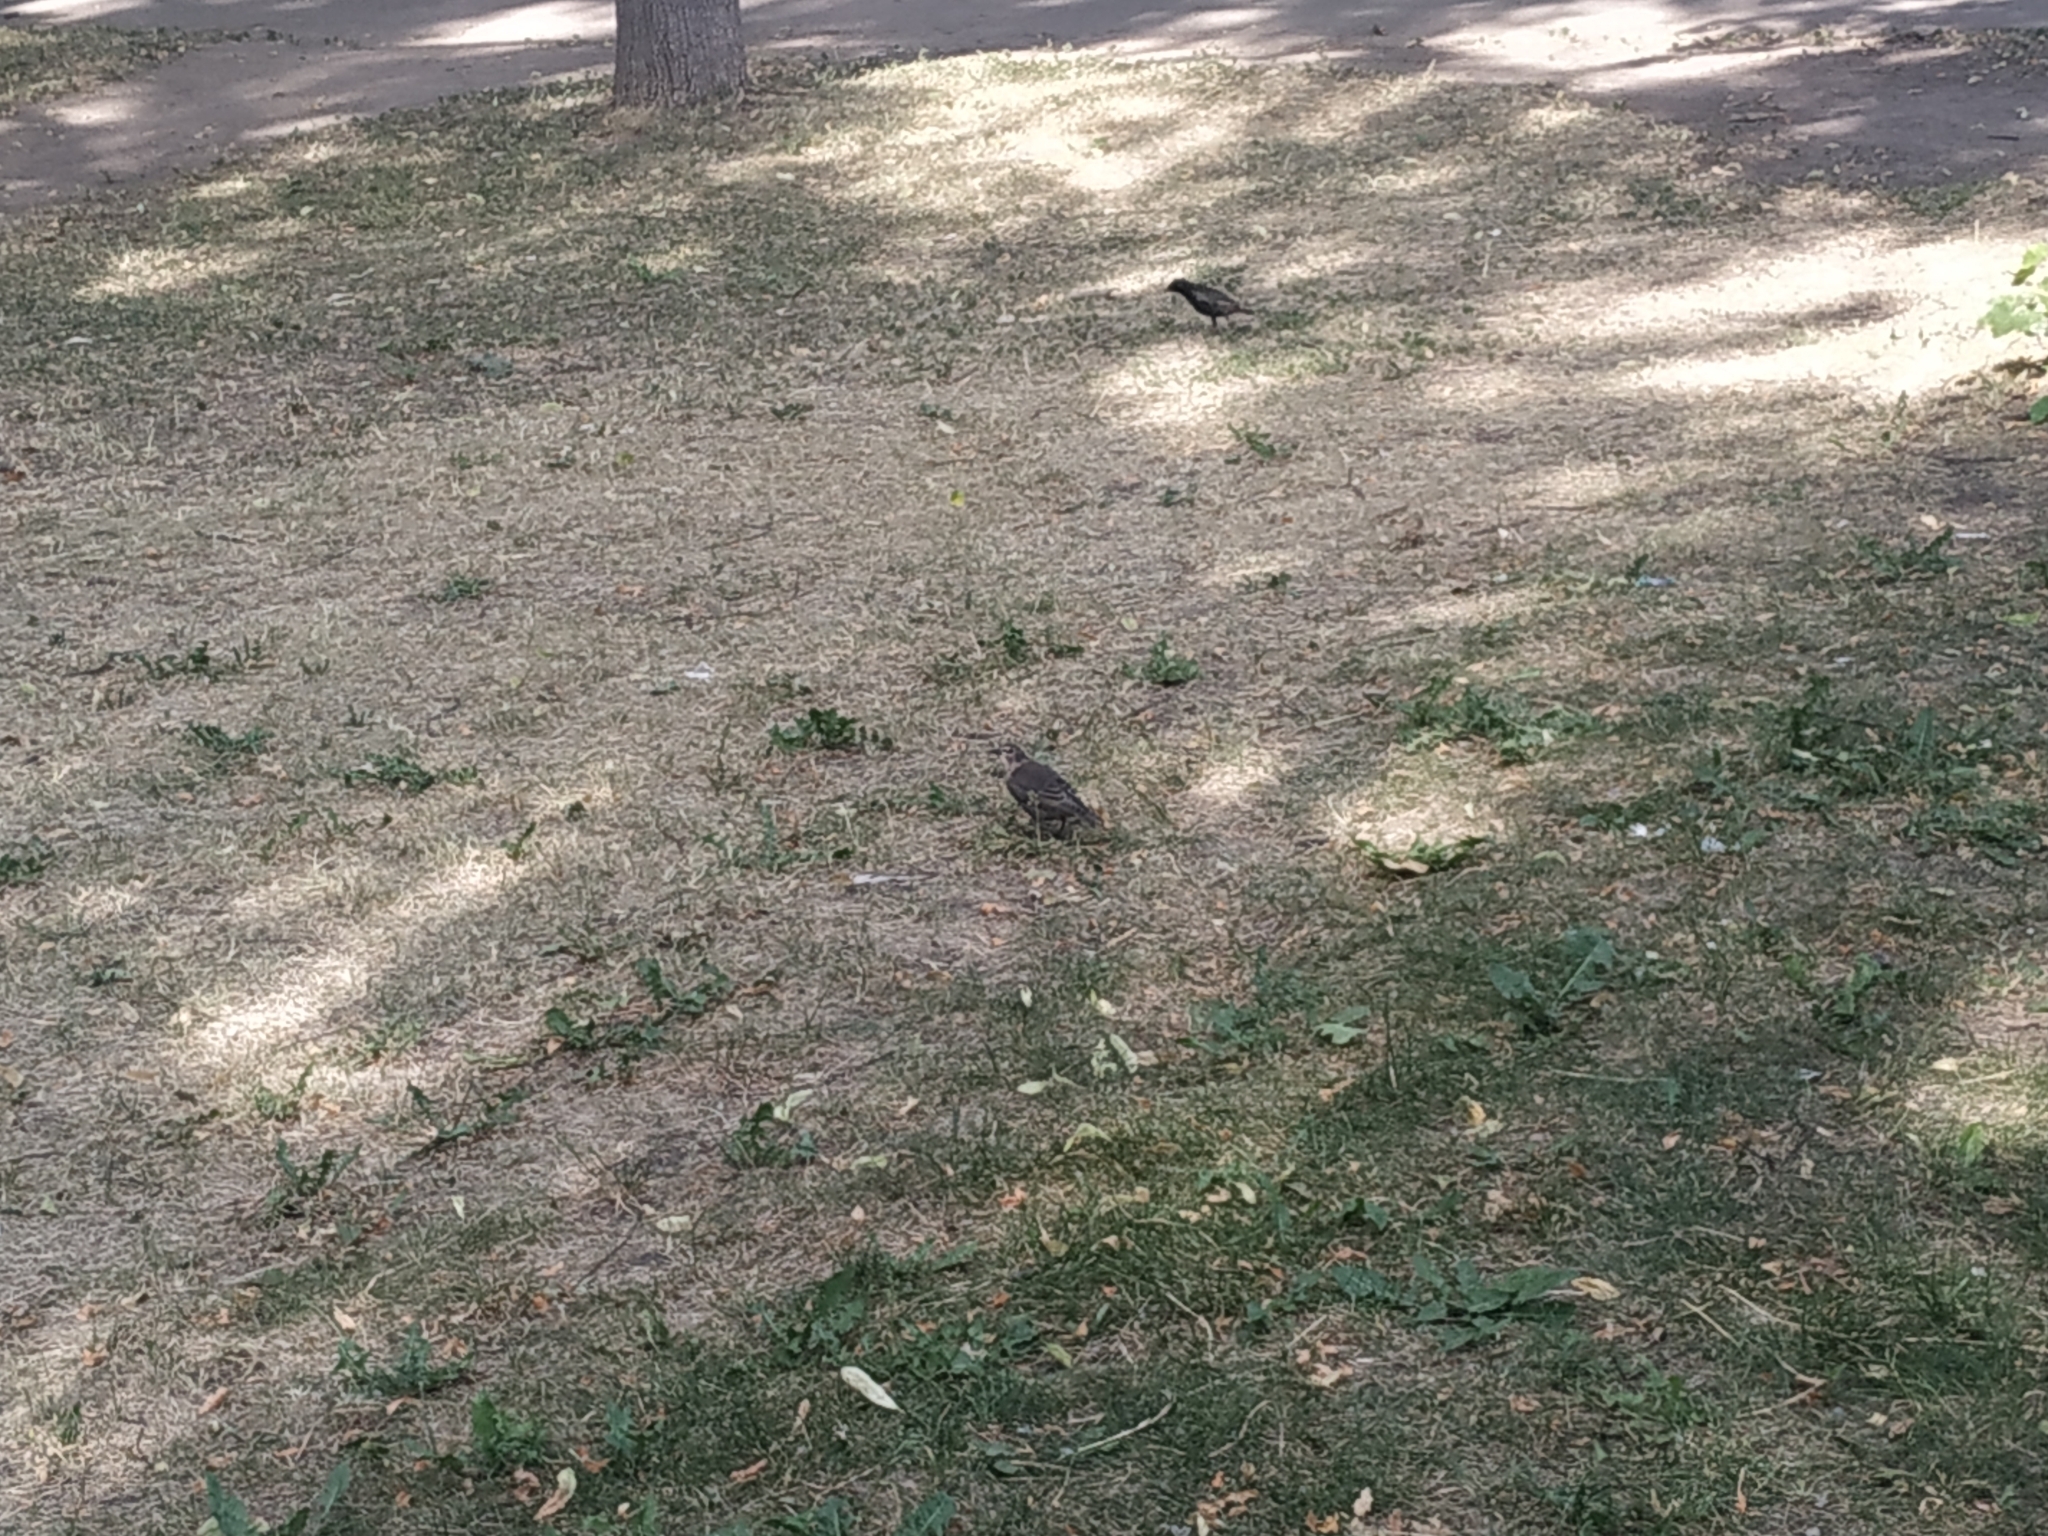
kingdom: Animalia
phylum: Chordata
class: Aves
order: Passeriformes
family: Sturnidae
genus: Sturnus
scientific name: Sturnus vulgaris
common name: Common starling
